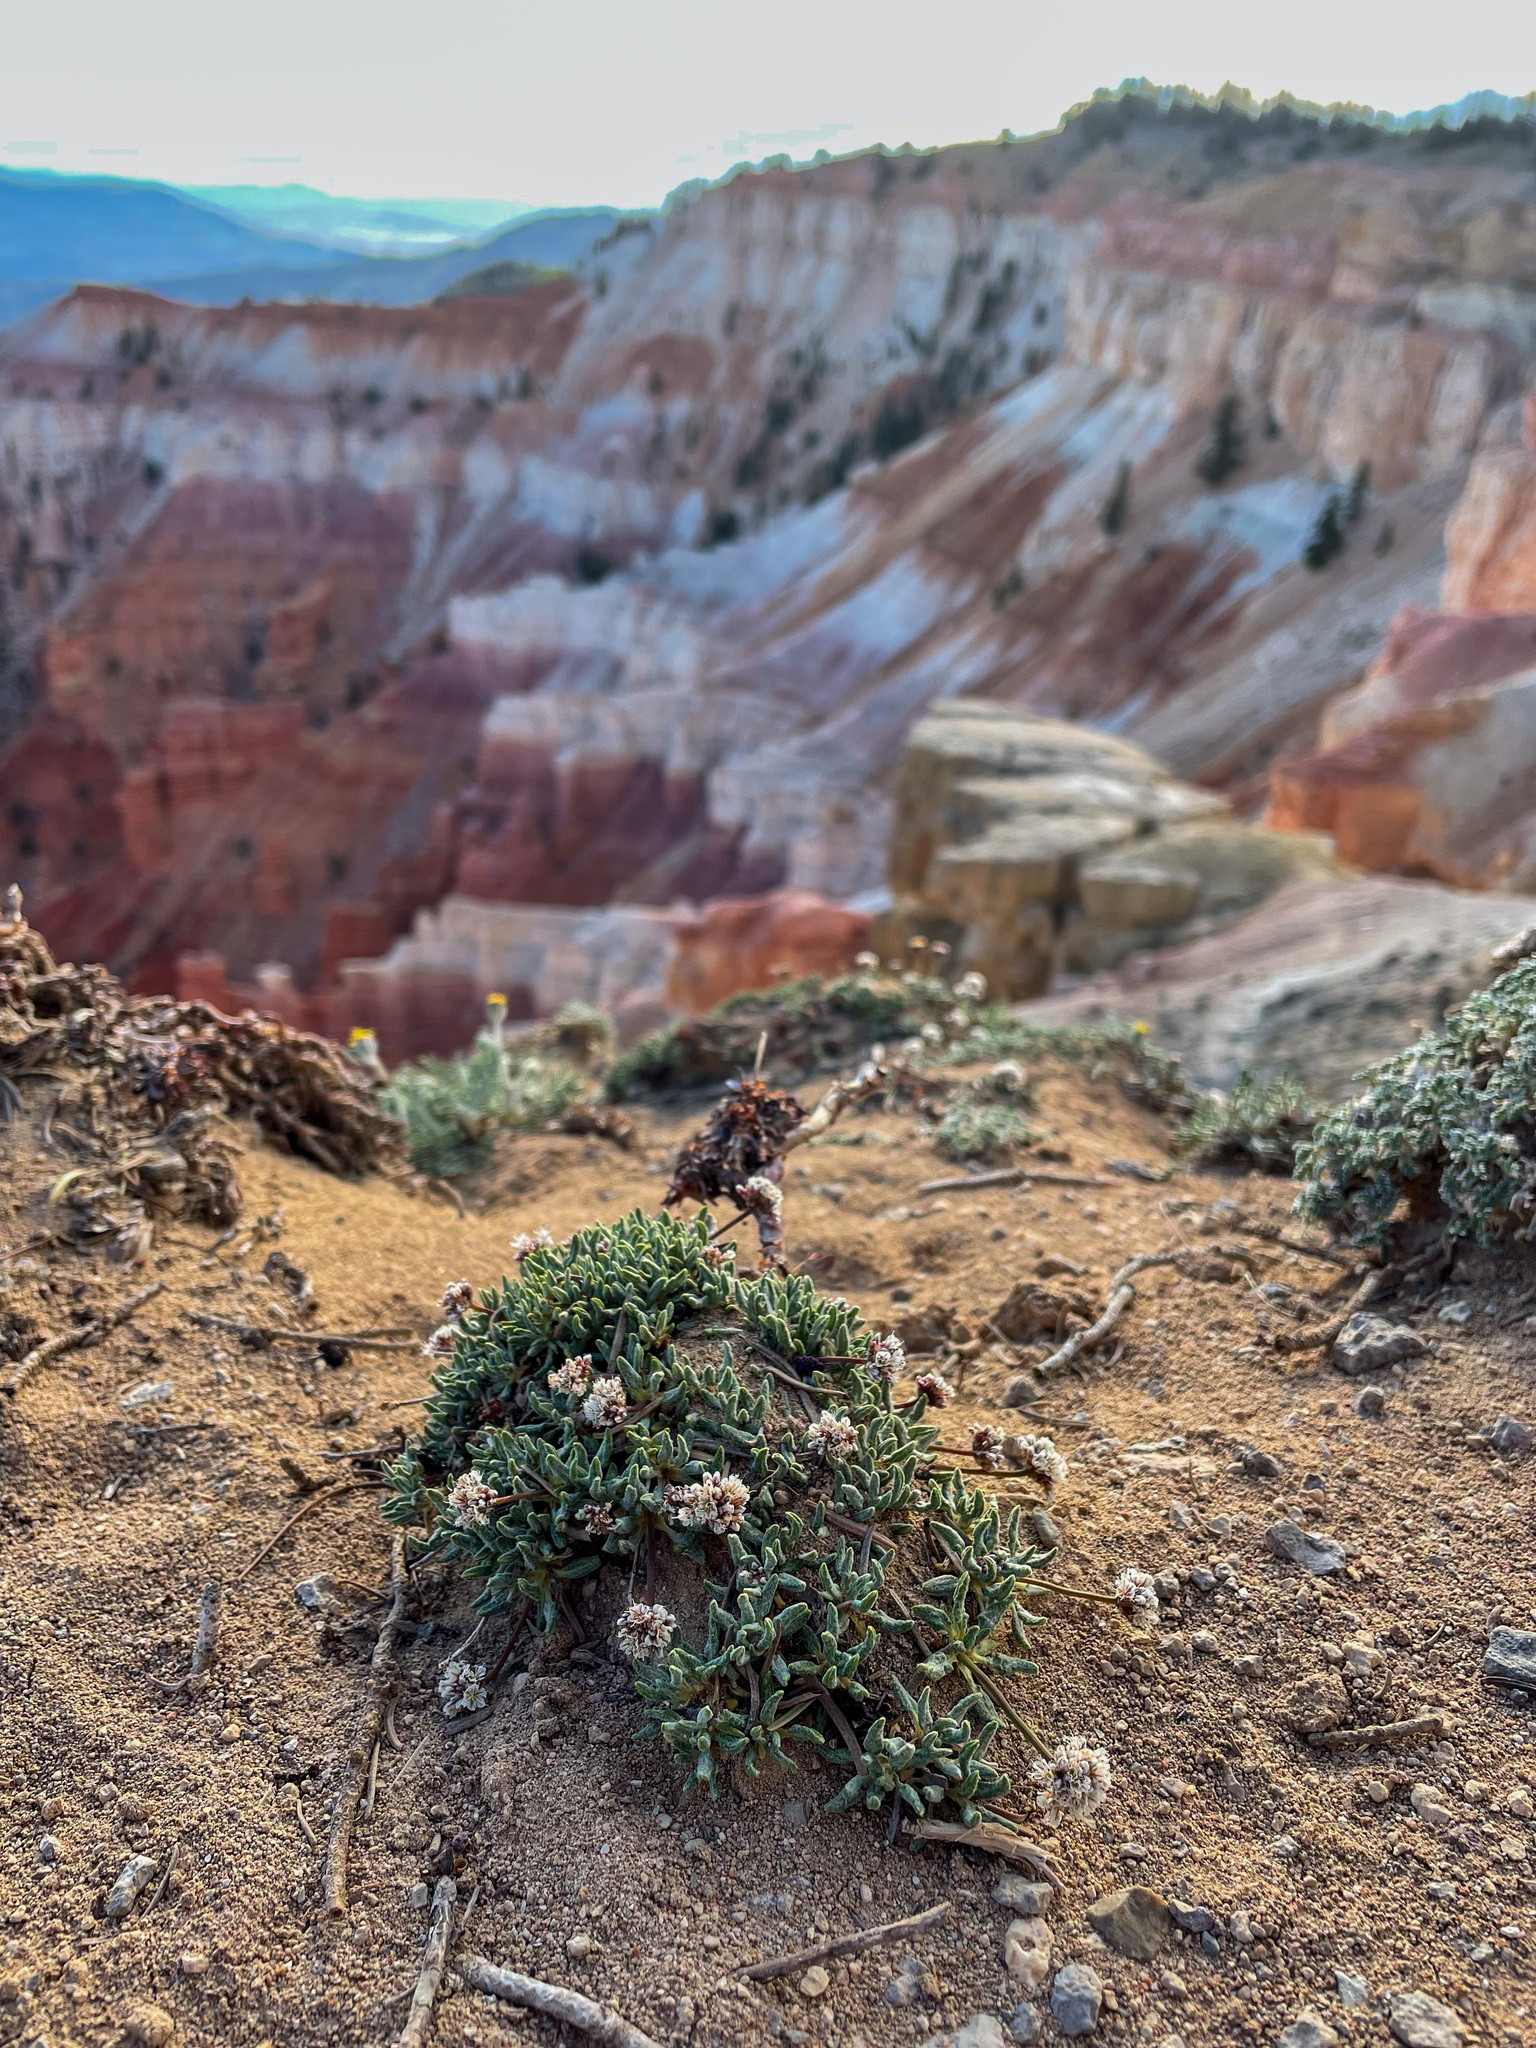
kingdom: Plantae
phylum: Tracheophyta
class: Magnoliopsida
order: Caryophyllales
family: Polygonaceae
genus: Eriogonum
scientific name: Eriogonum panguicense
